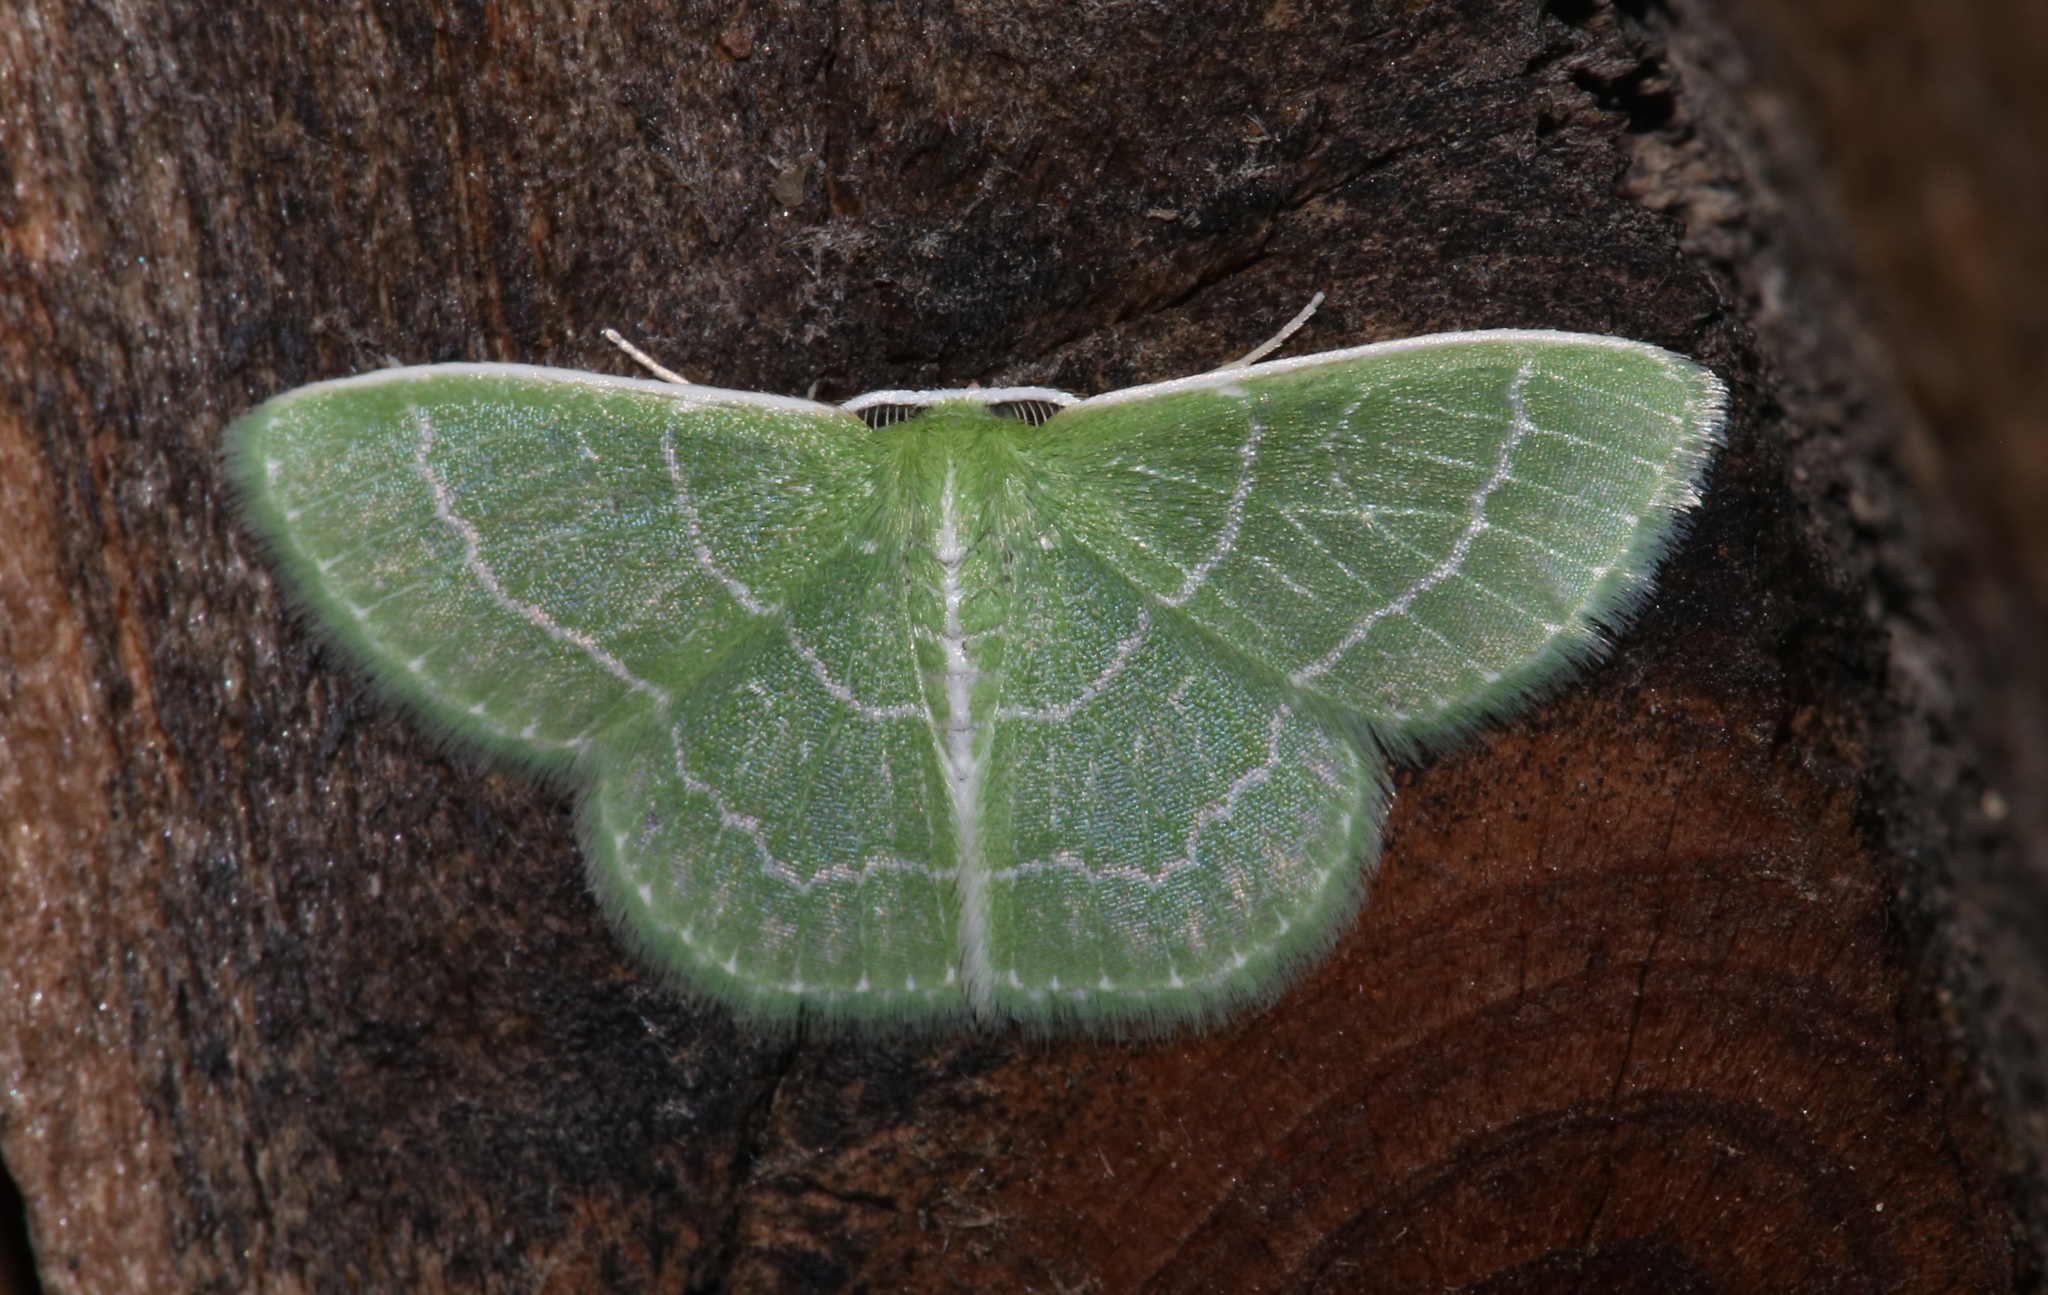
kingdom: Animalia
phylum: Arthropoda
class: Insecta
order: Lepidoptera
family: Geometridae
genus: Synchlora
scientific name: Synchlora aerata
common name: Wavy-lined emerald
